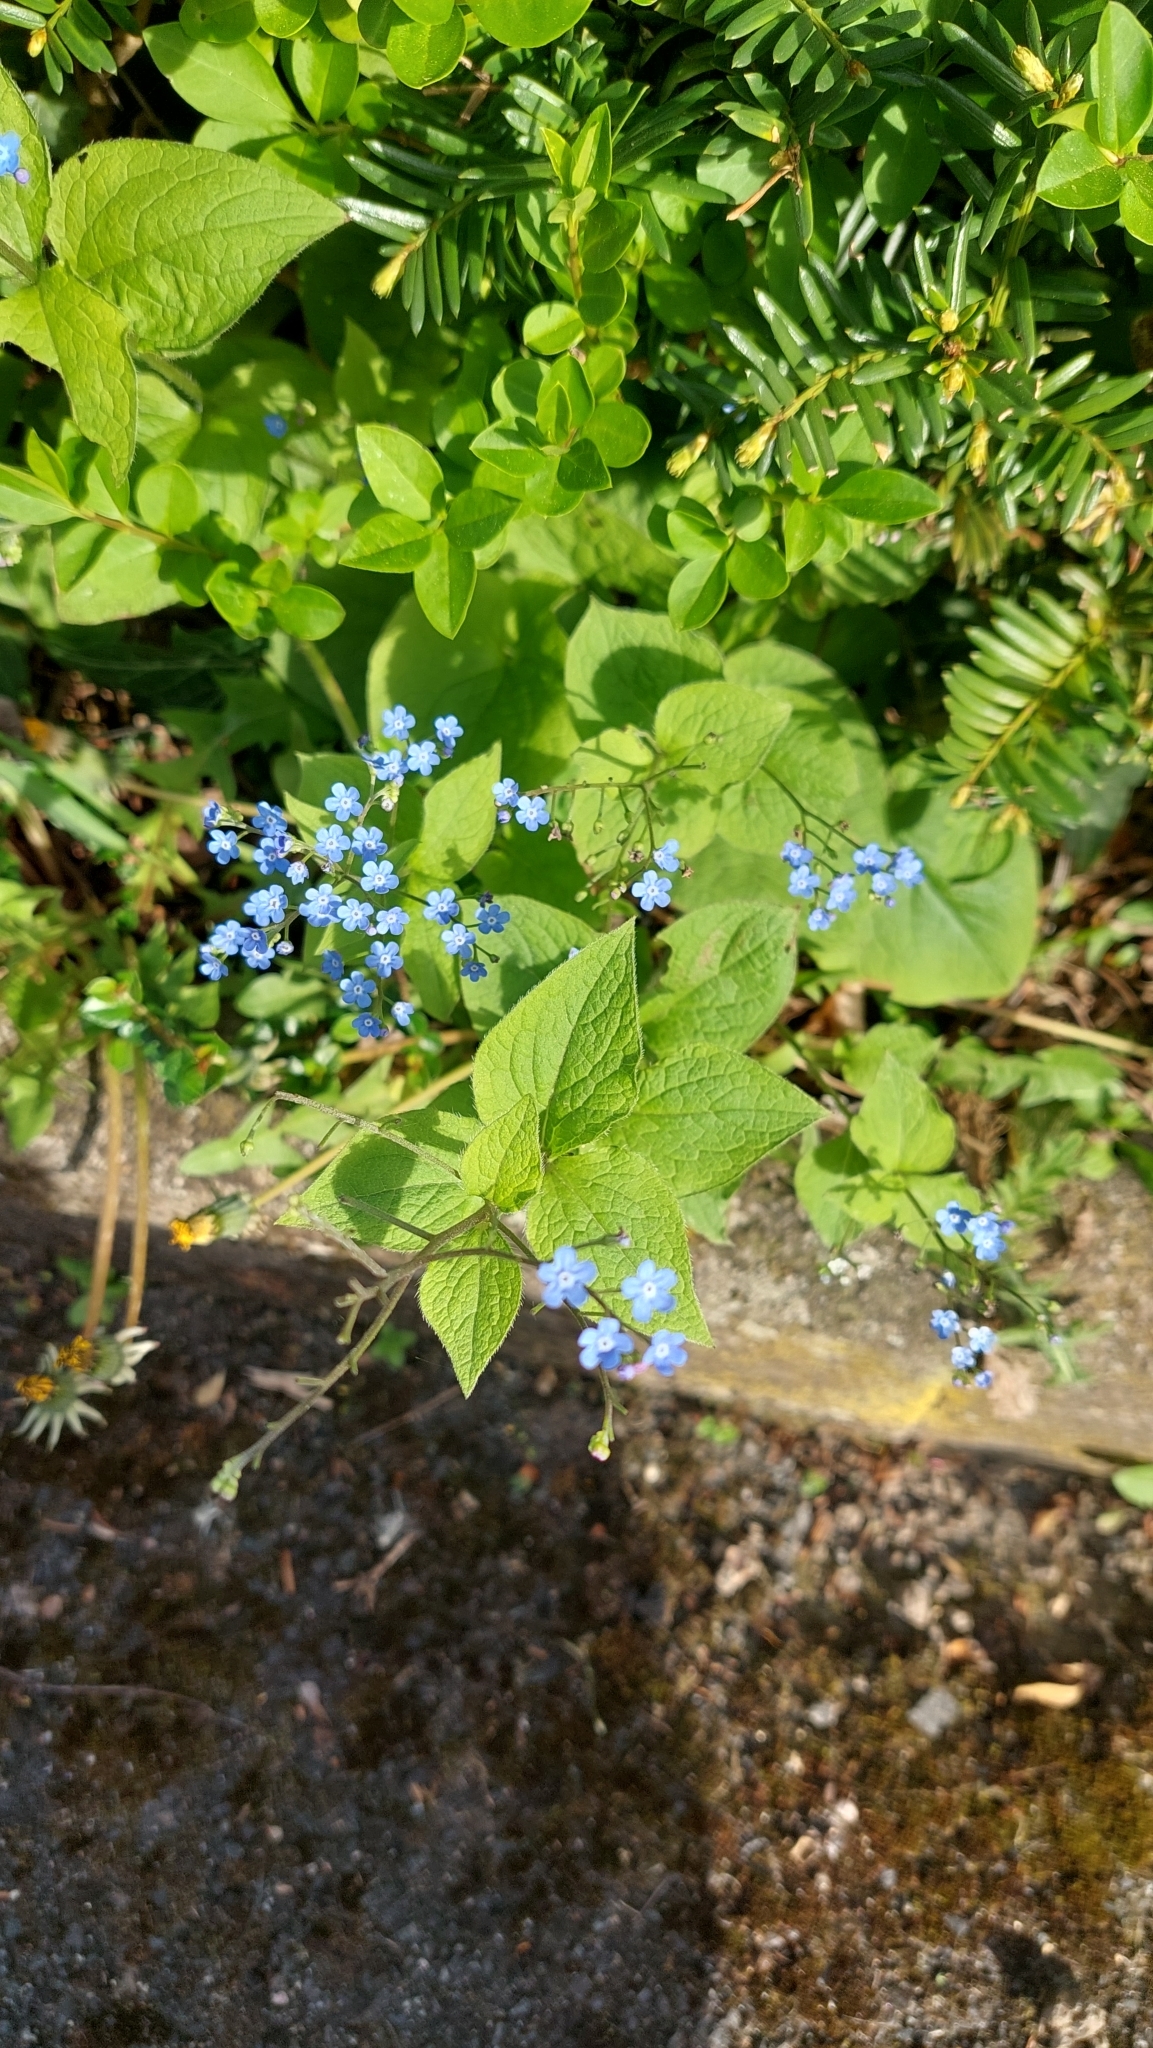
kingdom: Plantae
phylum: Tracheophyta
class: Magnoliopsida
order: Boraginales
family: Boraginaceae
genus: Brunnera
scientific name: Brunnera macrophylla
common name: Great forget-me-not
